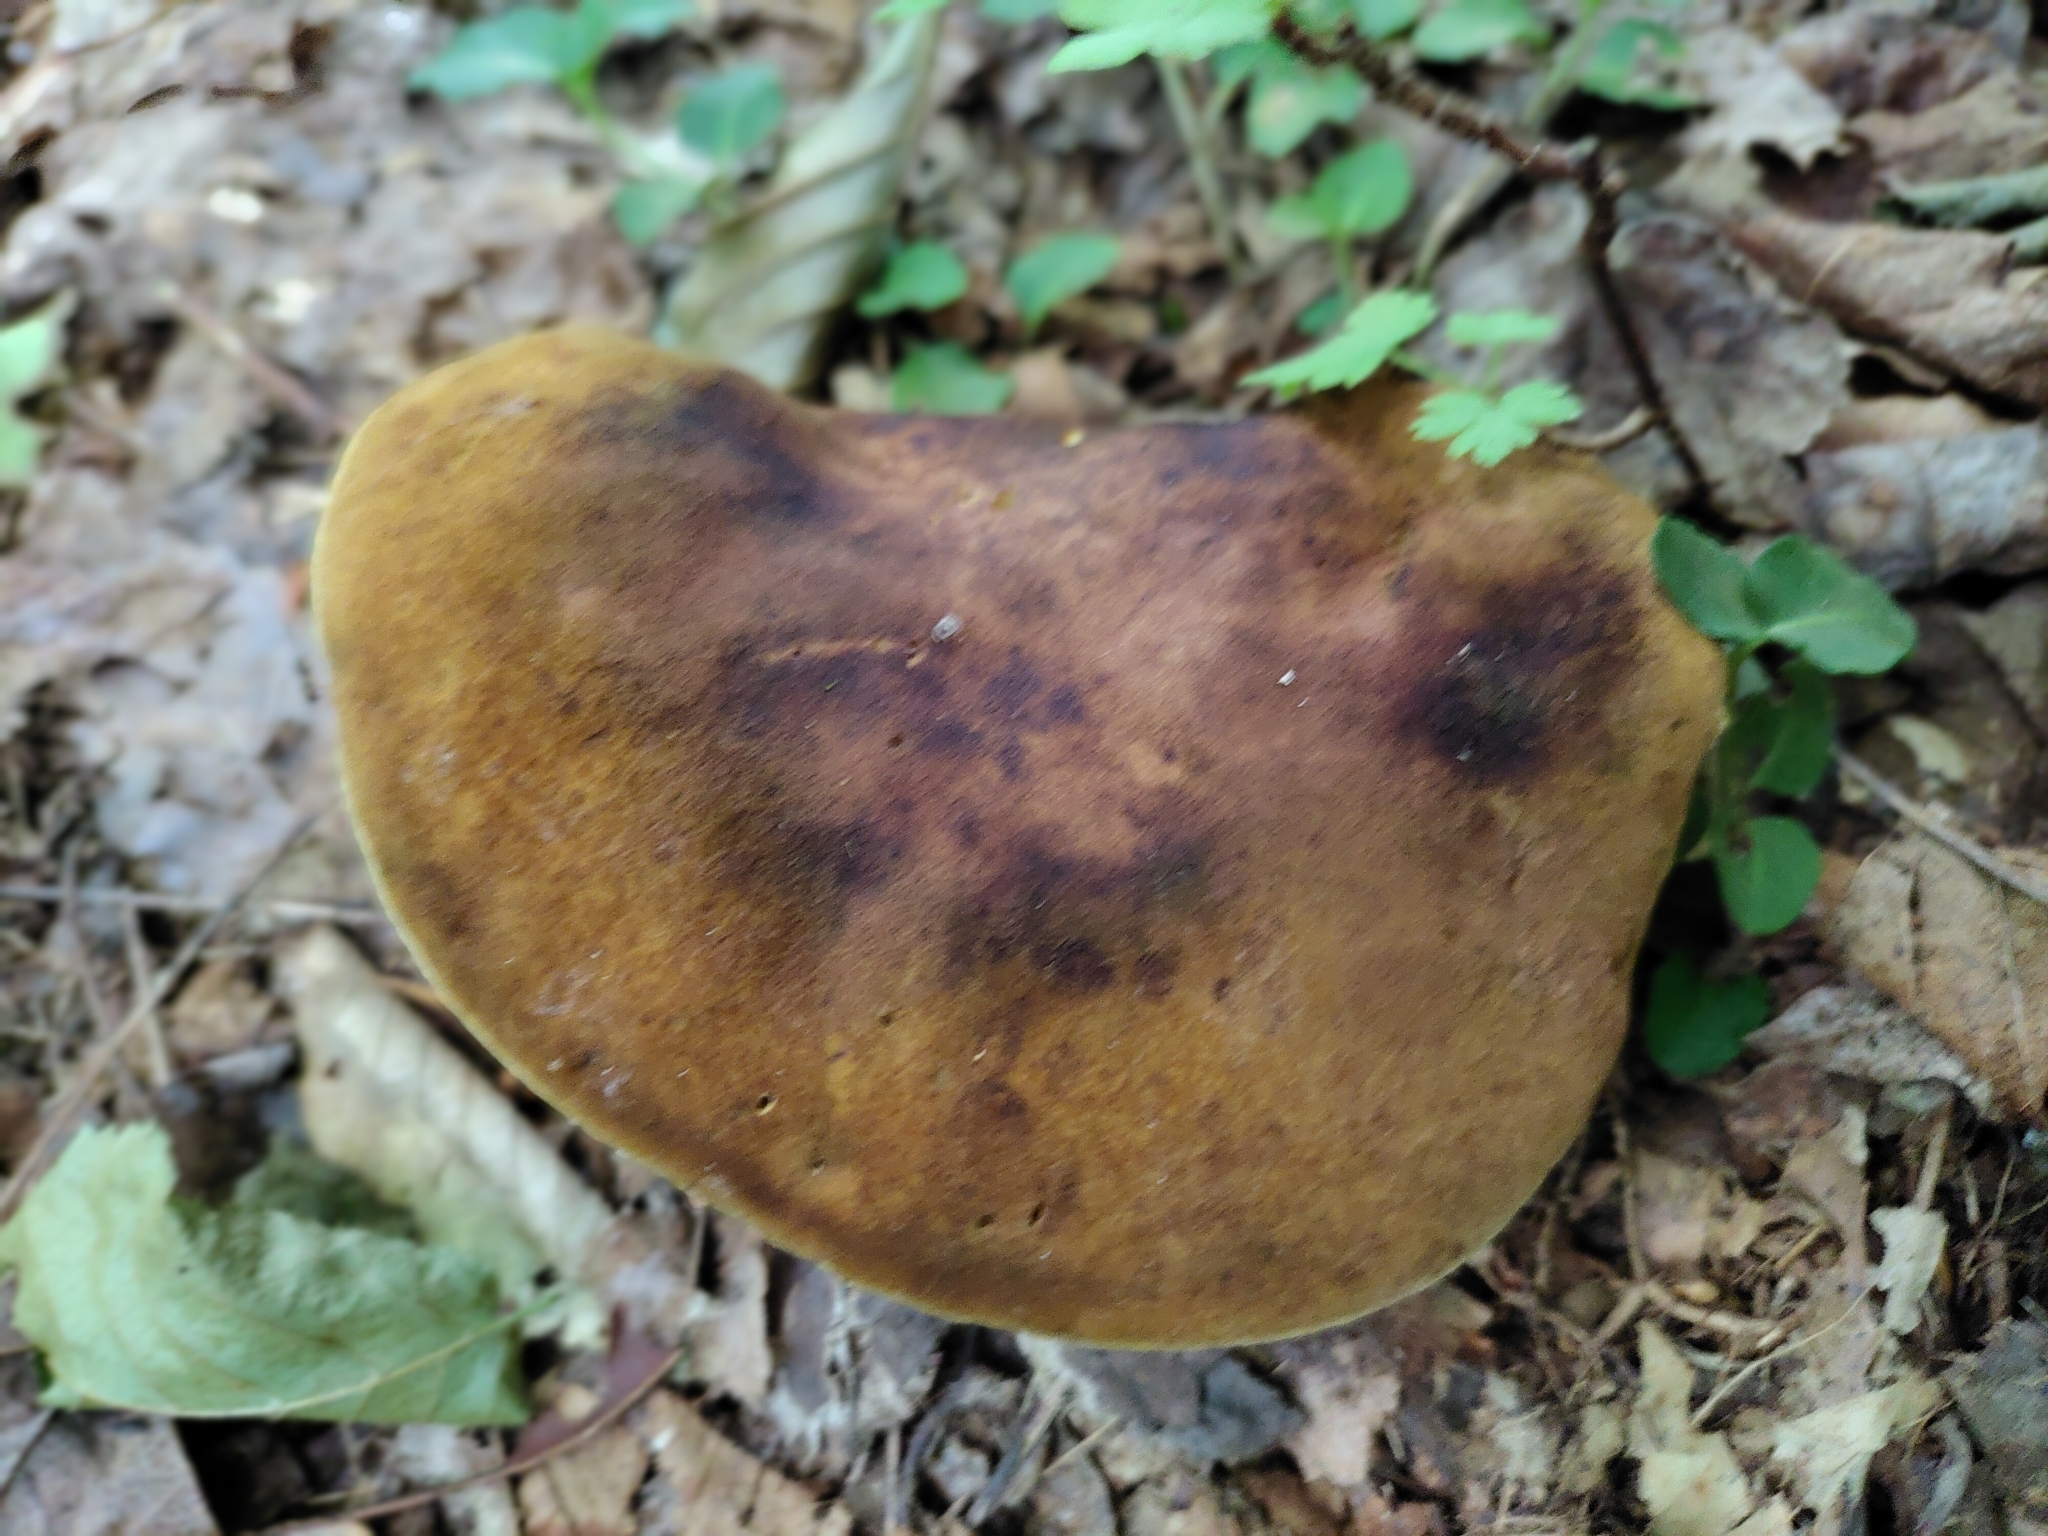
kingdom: Fungi
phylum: Basidiomycota
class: Agaricomycetes
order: Boletales
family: Boletinellaceae
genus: Boletinellus
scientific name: Boletinellus merulioides
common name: Ash tree bolete
